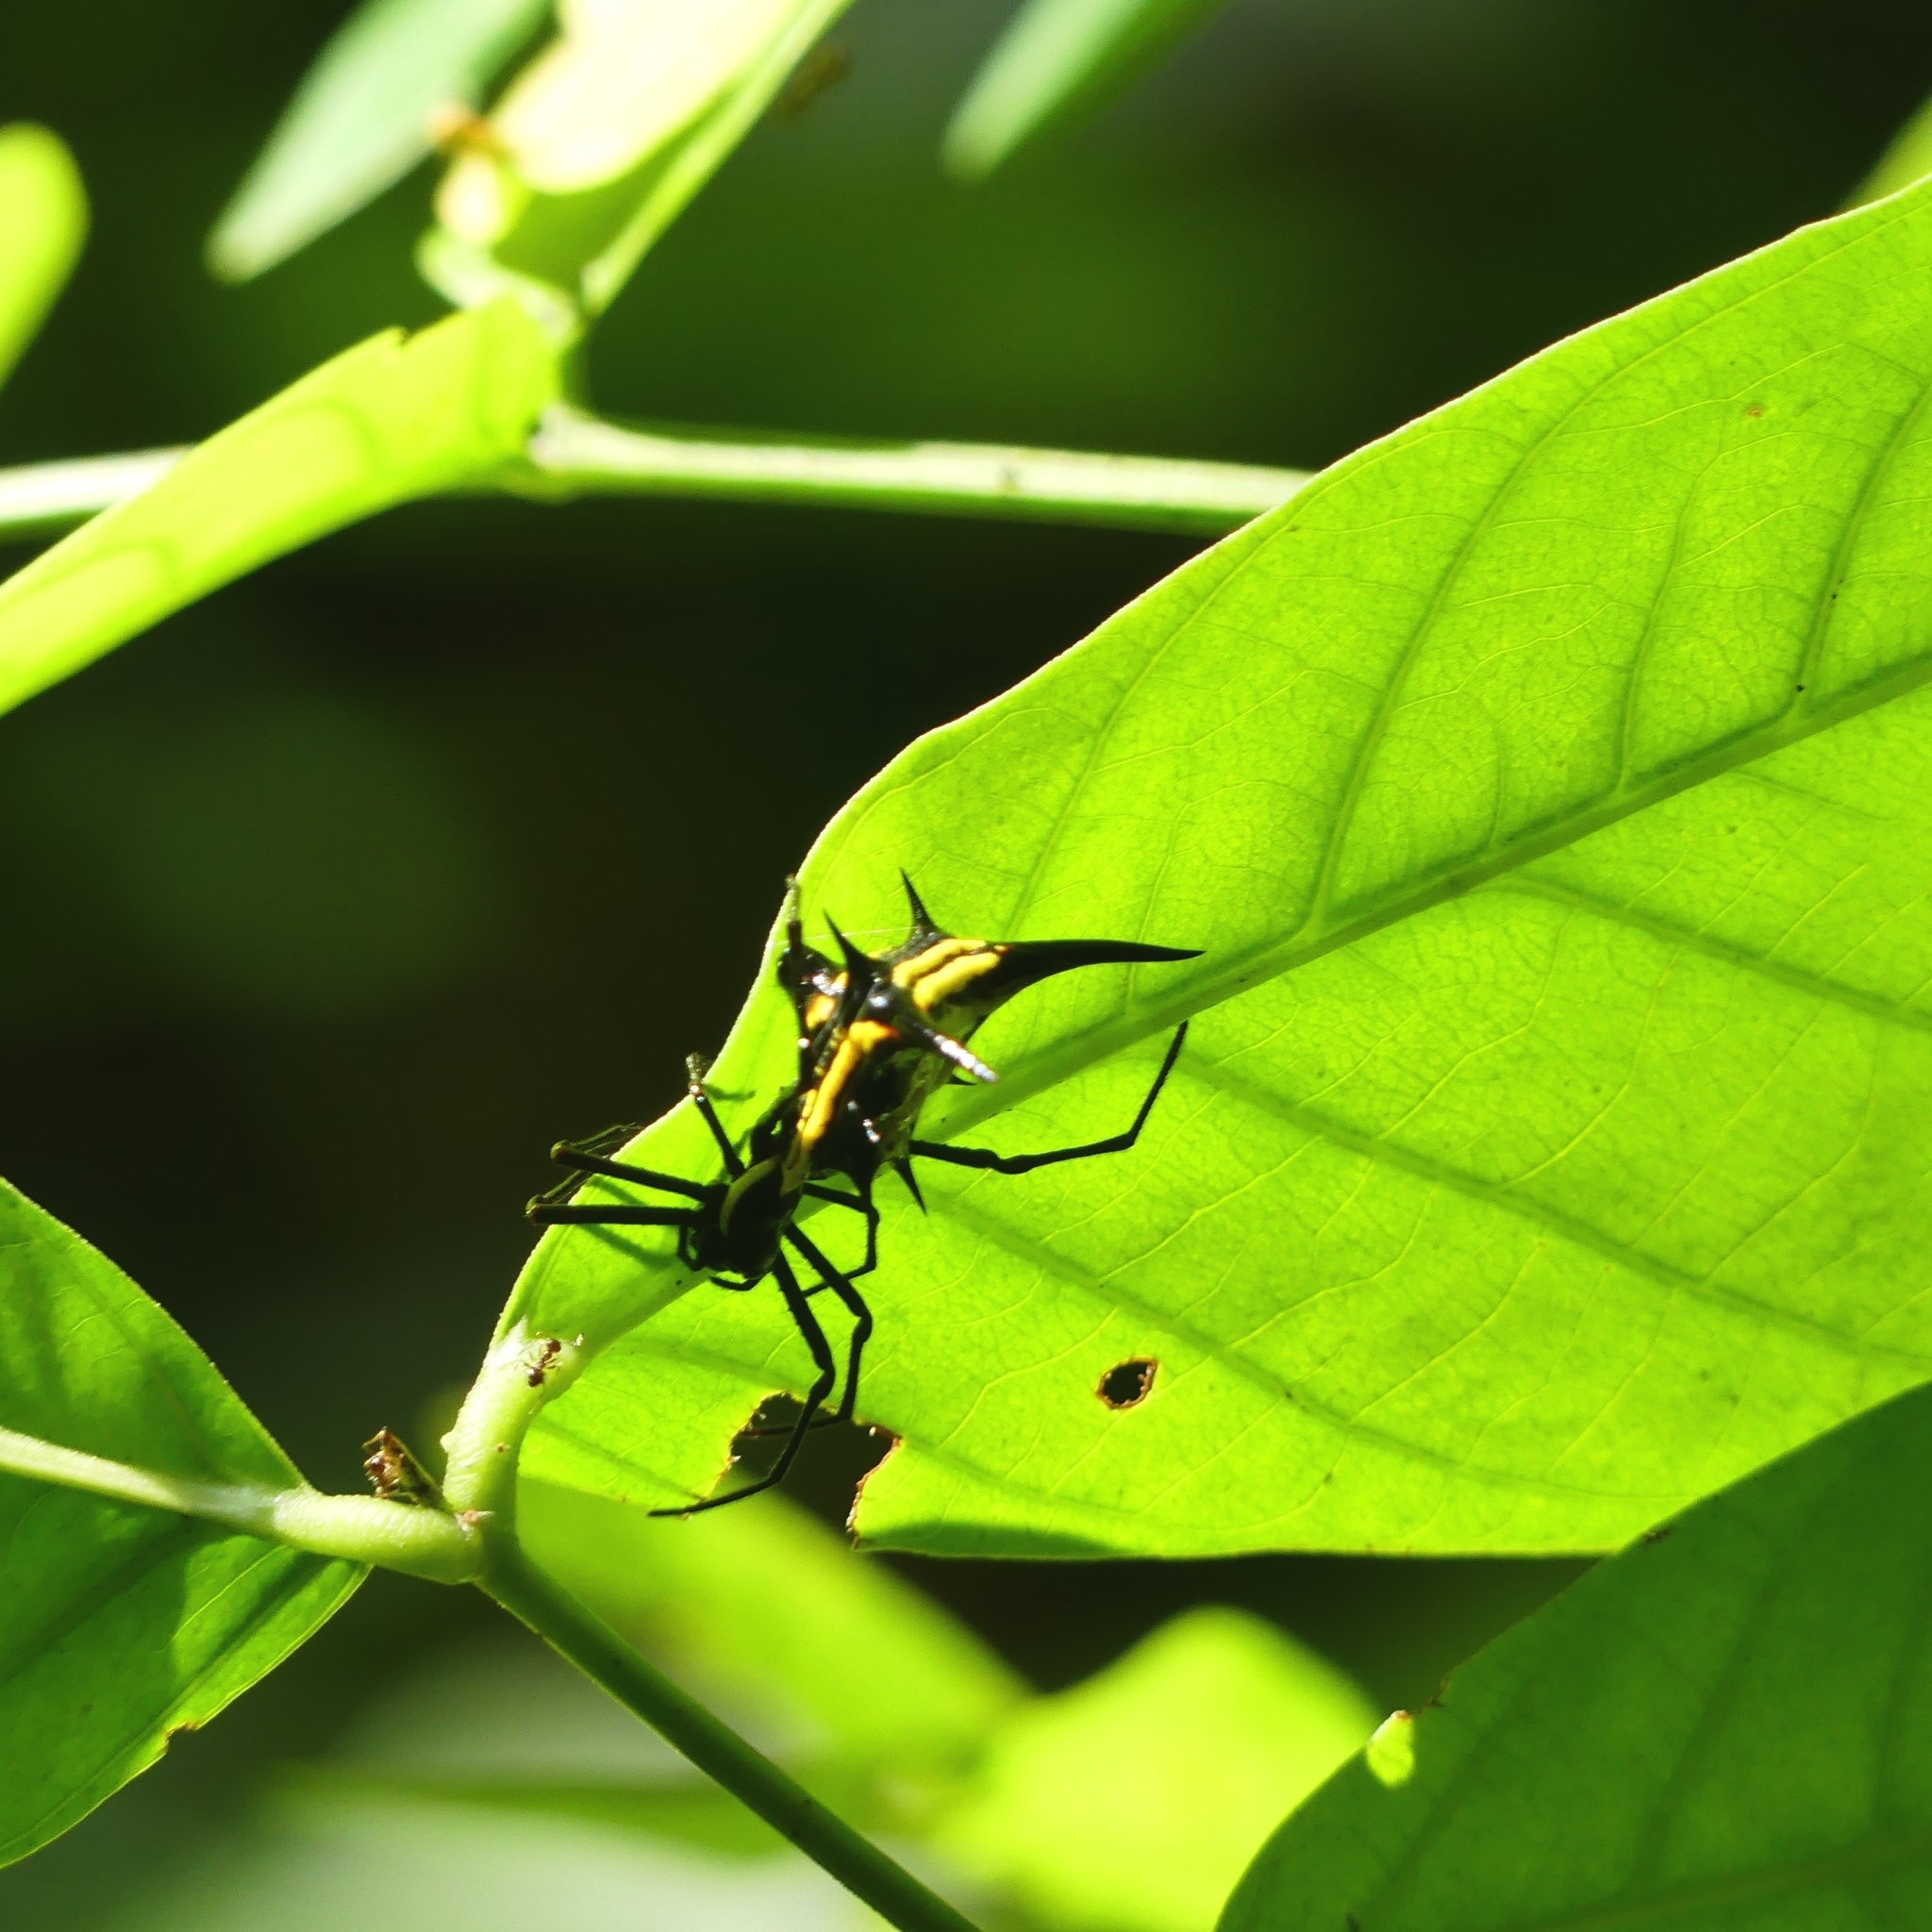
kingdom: Animalia
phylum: Arthropoda
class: Arachnida
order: Araneae
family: Araneidae
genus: Micrathena
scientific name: Micrathena schreibersi
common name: Orb weavers
